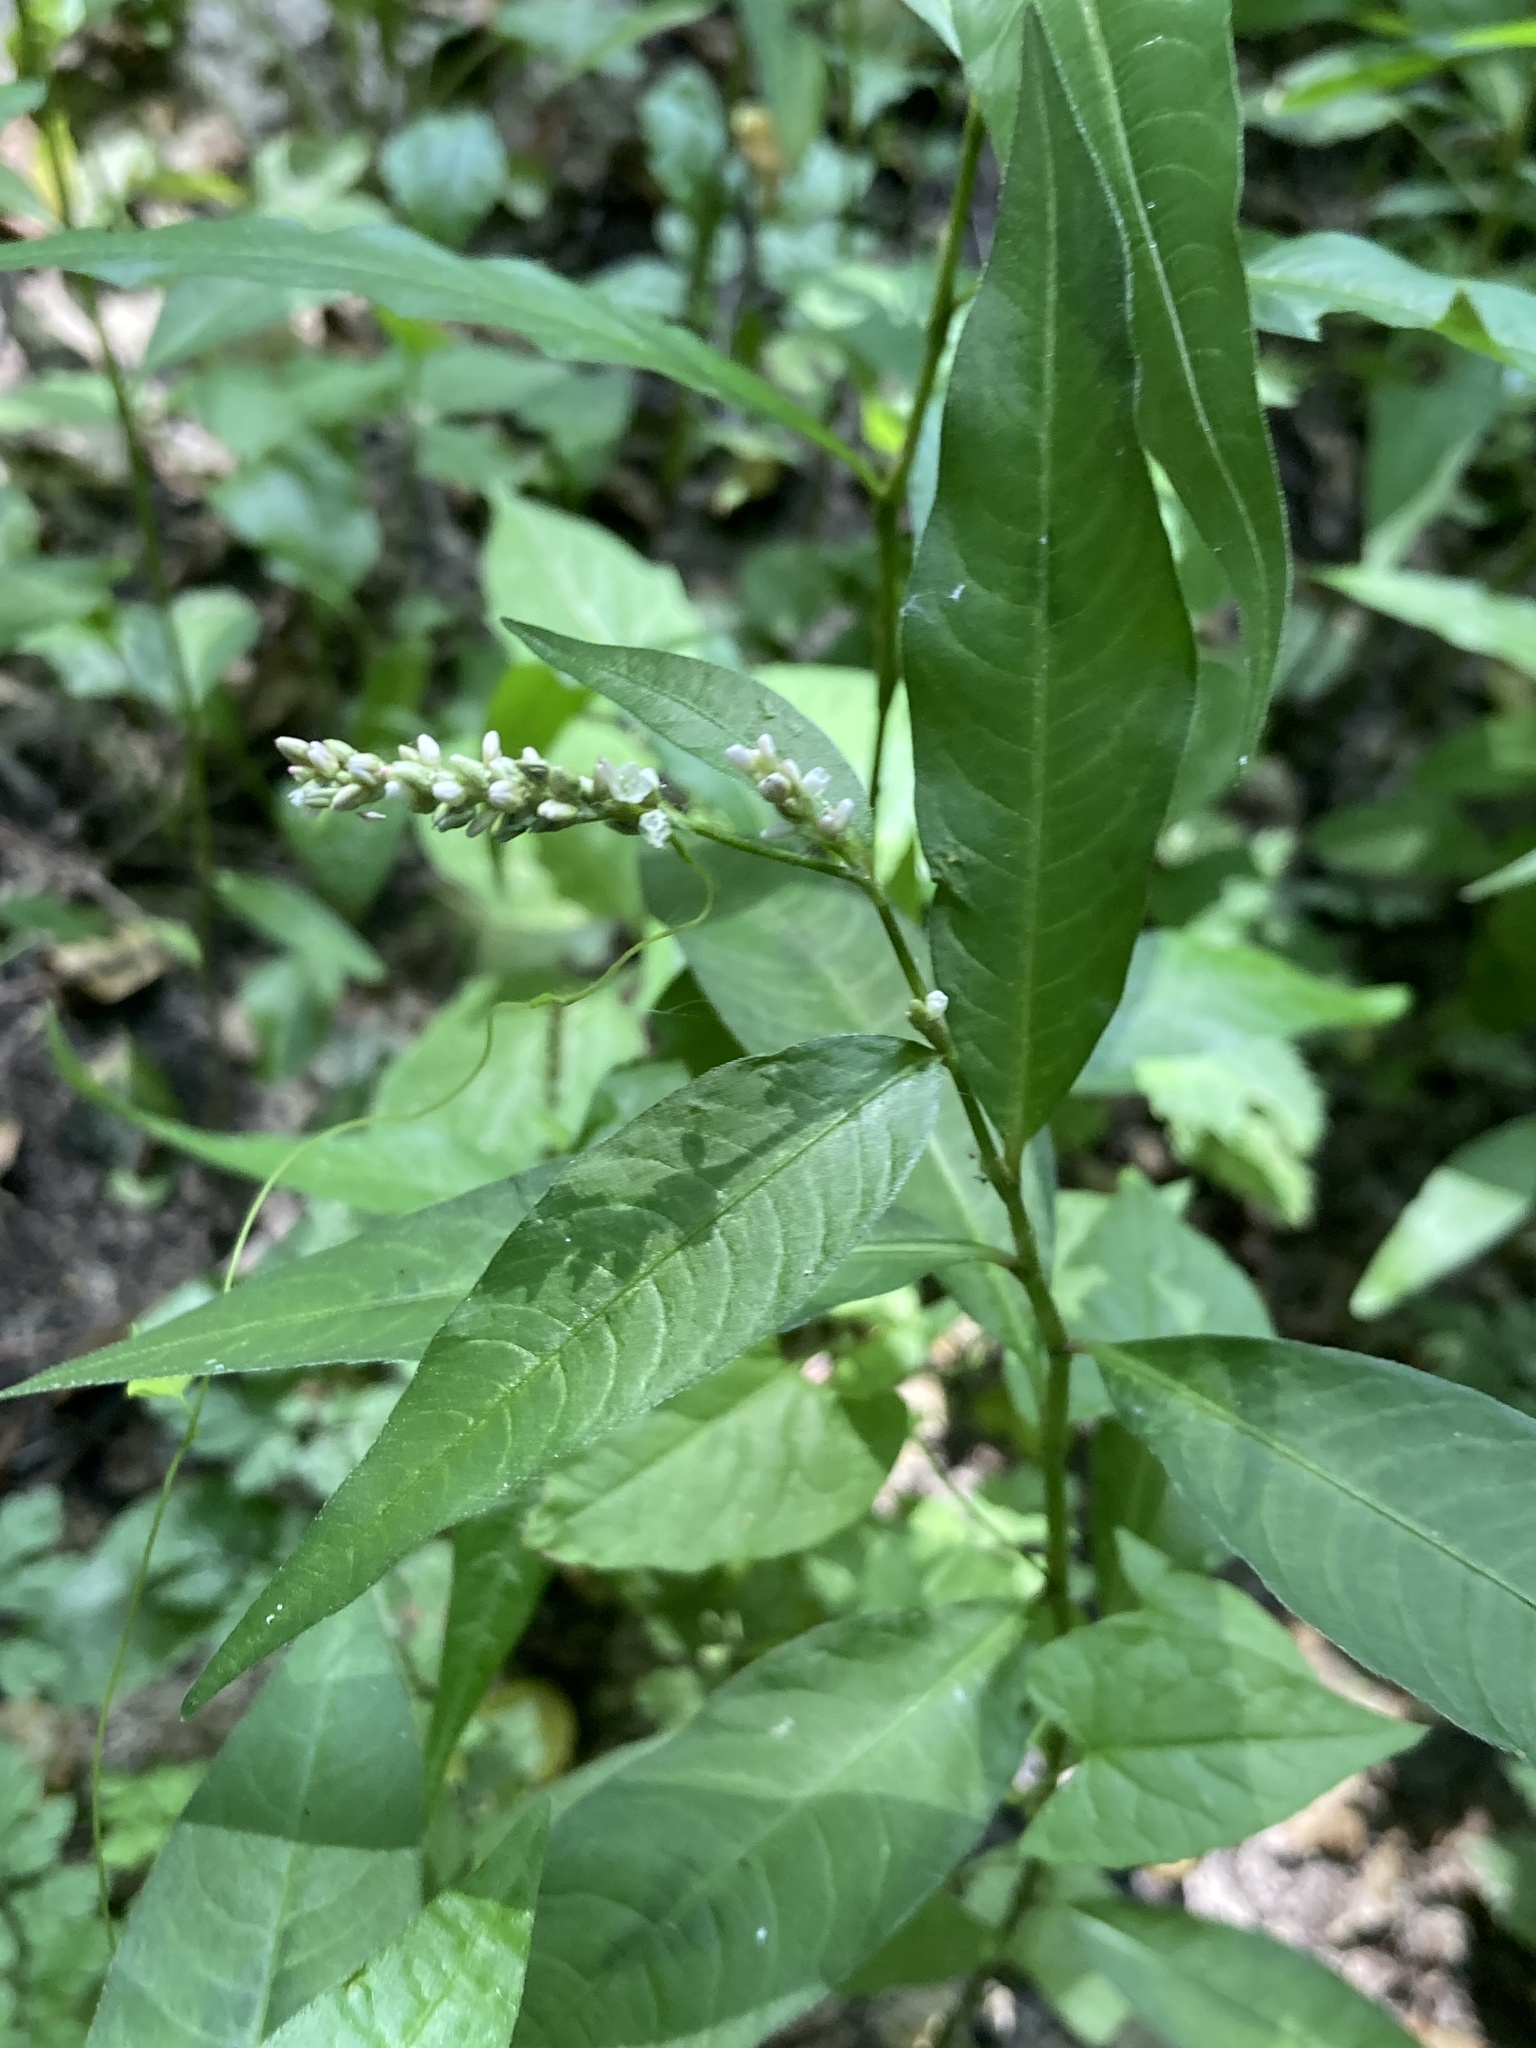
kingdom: Plantae
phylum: Tracheophyta
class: Magnoliopsida
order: Caryophyllales
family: Polygonaceae
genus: Persicaria
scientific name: Persicaria lapathifolia
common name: Curlytop knotweed
